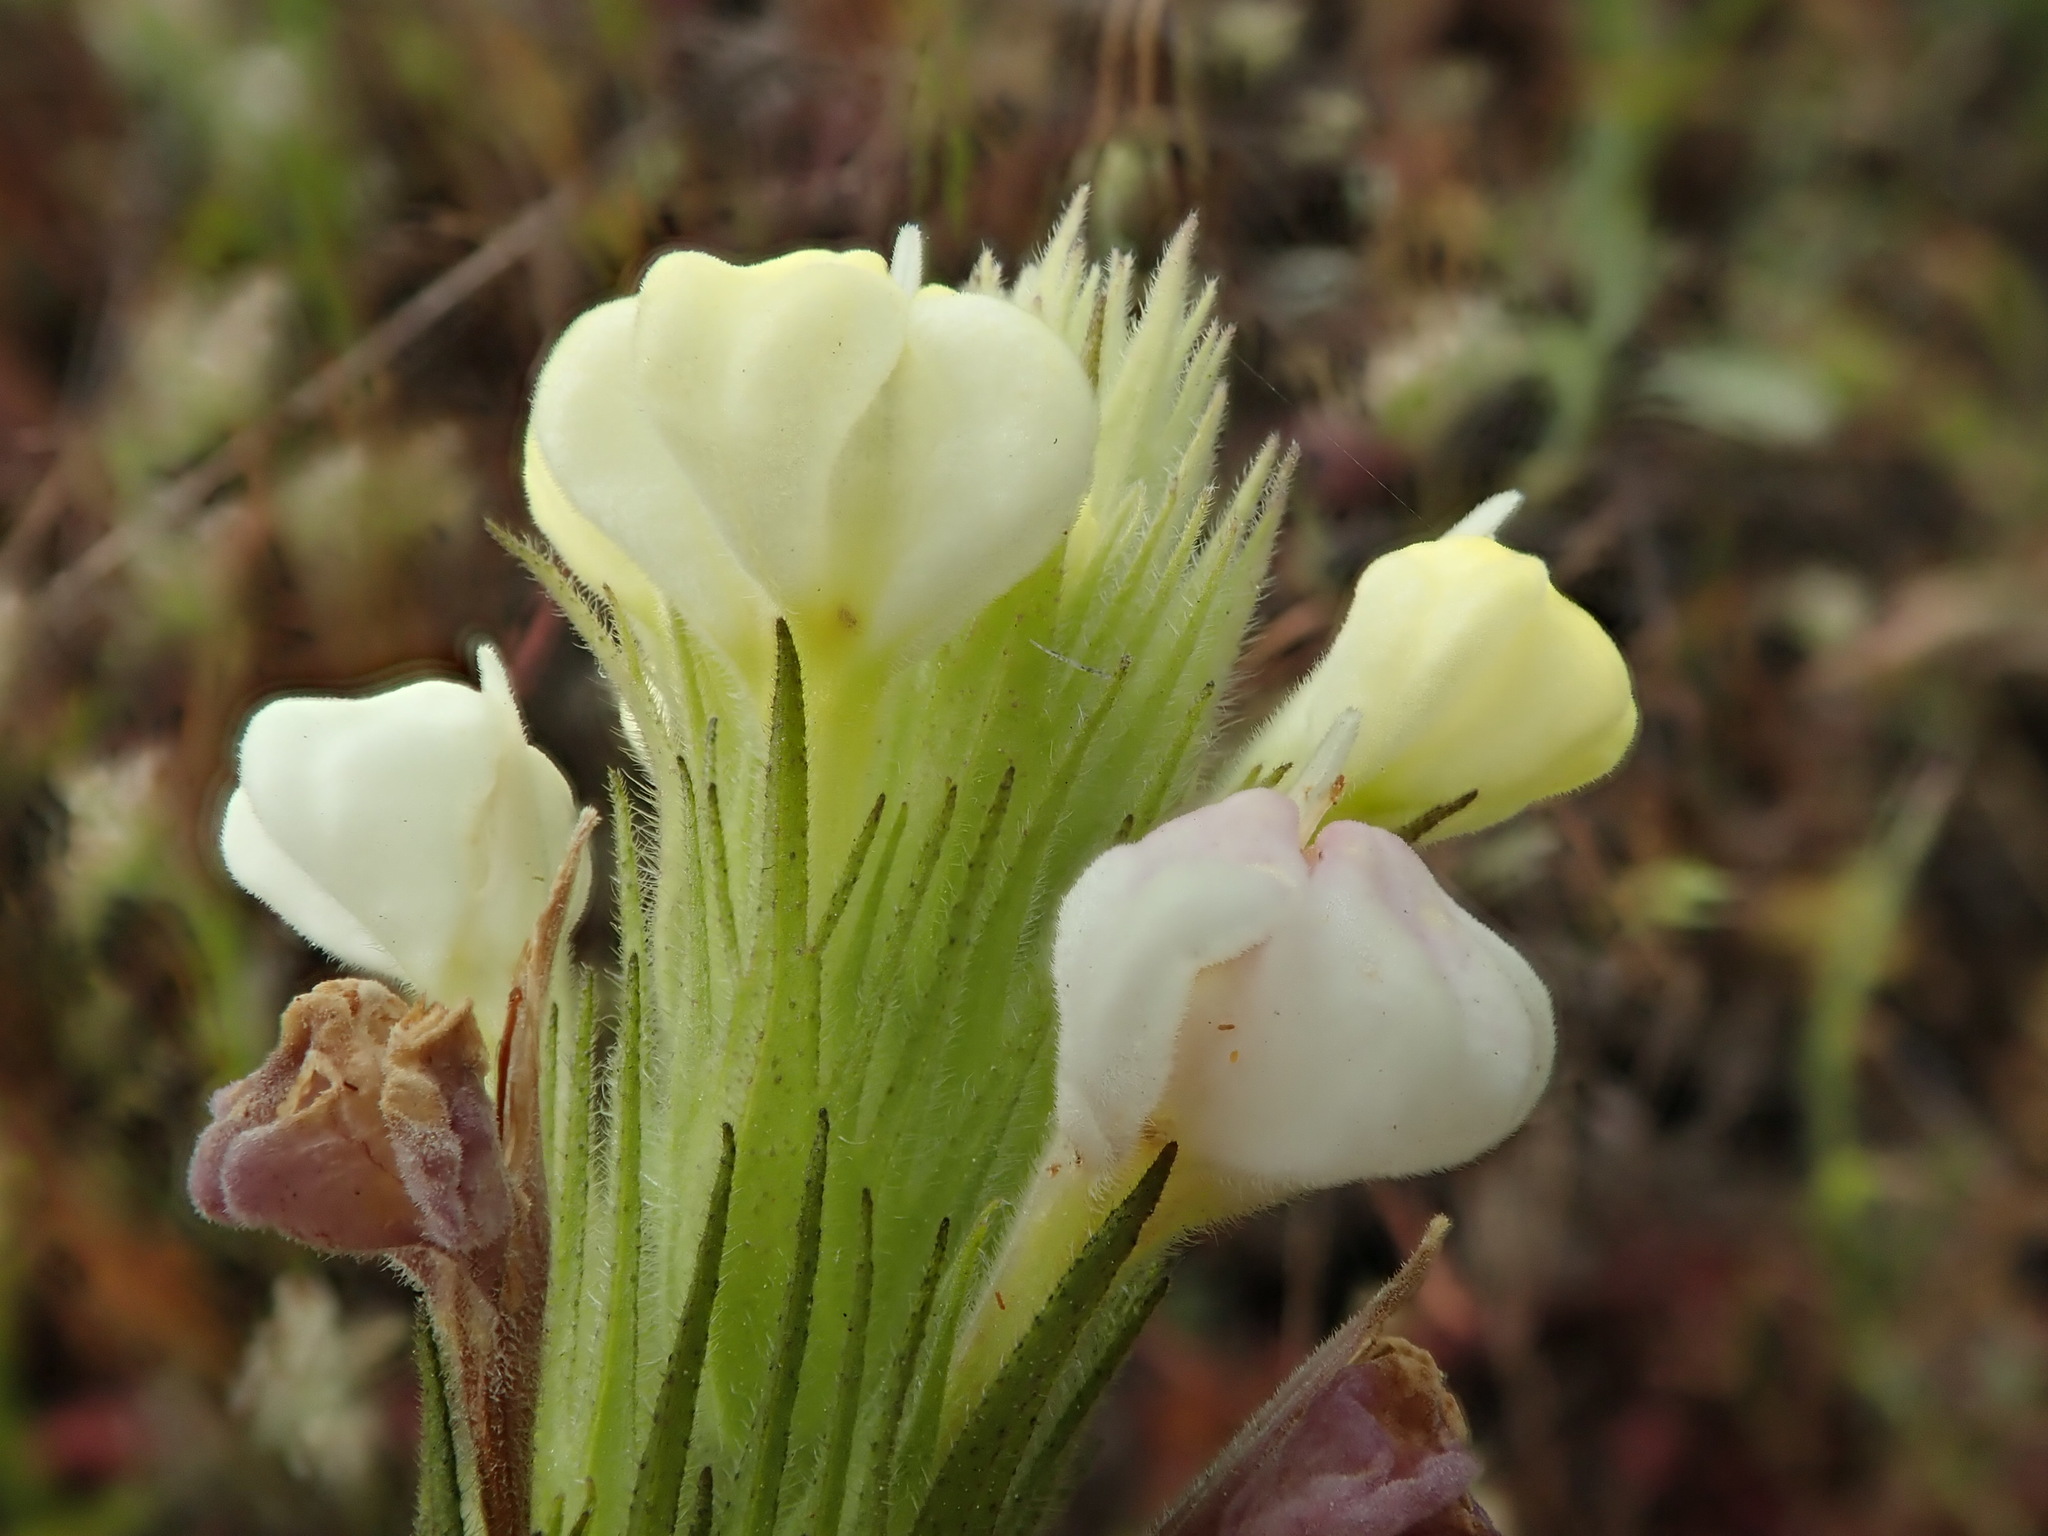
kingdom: Plantae
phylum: Tracheophyta
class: Magnoliopsida
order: Lamiales
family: Orobanchaceae
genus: Castilleja
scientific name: Castilleja rubicundula
